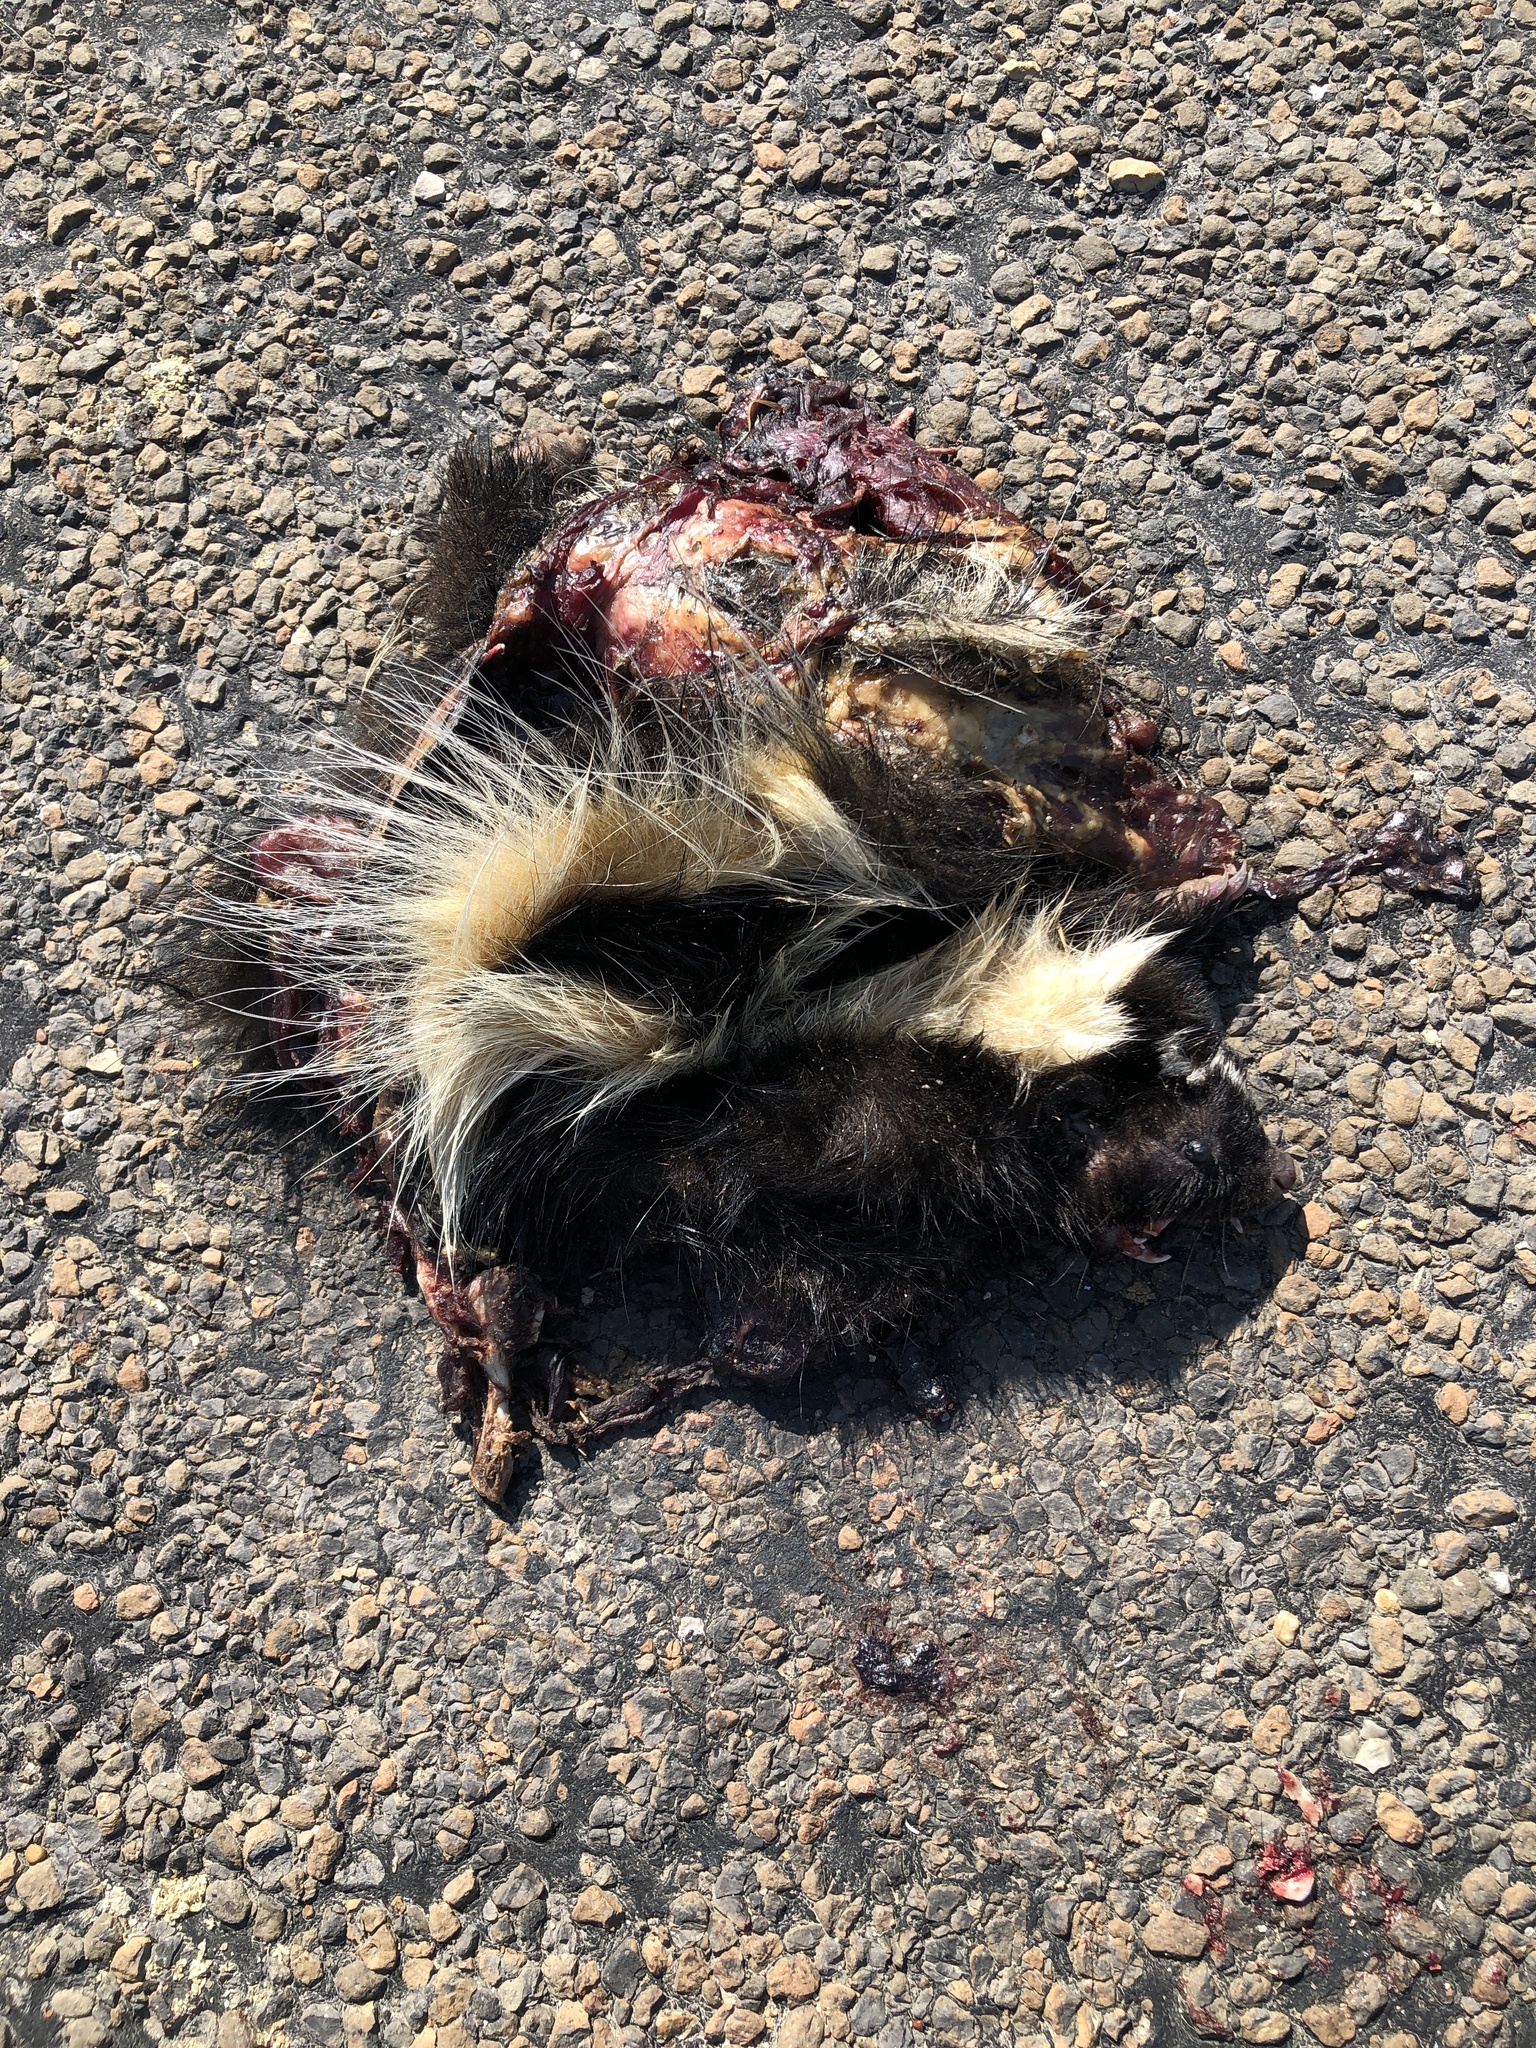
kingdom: Animalia
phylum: Chordata
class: Mammalia
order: Carnivora
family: Mephitidae
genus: Mephitis
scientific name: Mephitis mephitis
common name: Striped skunk
